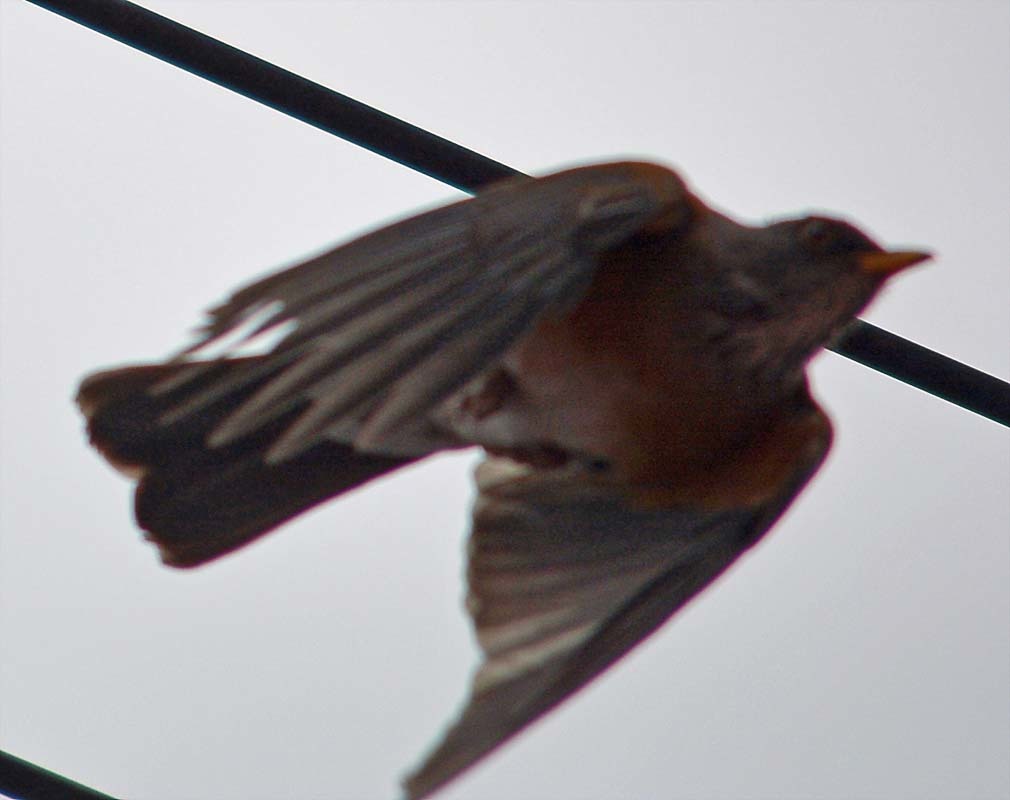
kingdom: Animalia
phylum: Chordata
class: Aves
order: Passeriformes
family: Turdidae
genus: Turdus
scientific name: Turdus rufopalliatus
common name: Rufous-backed robin
